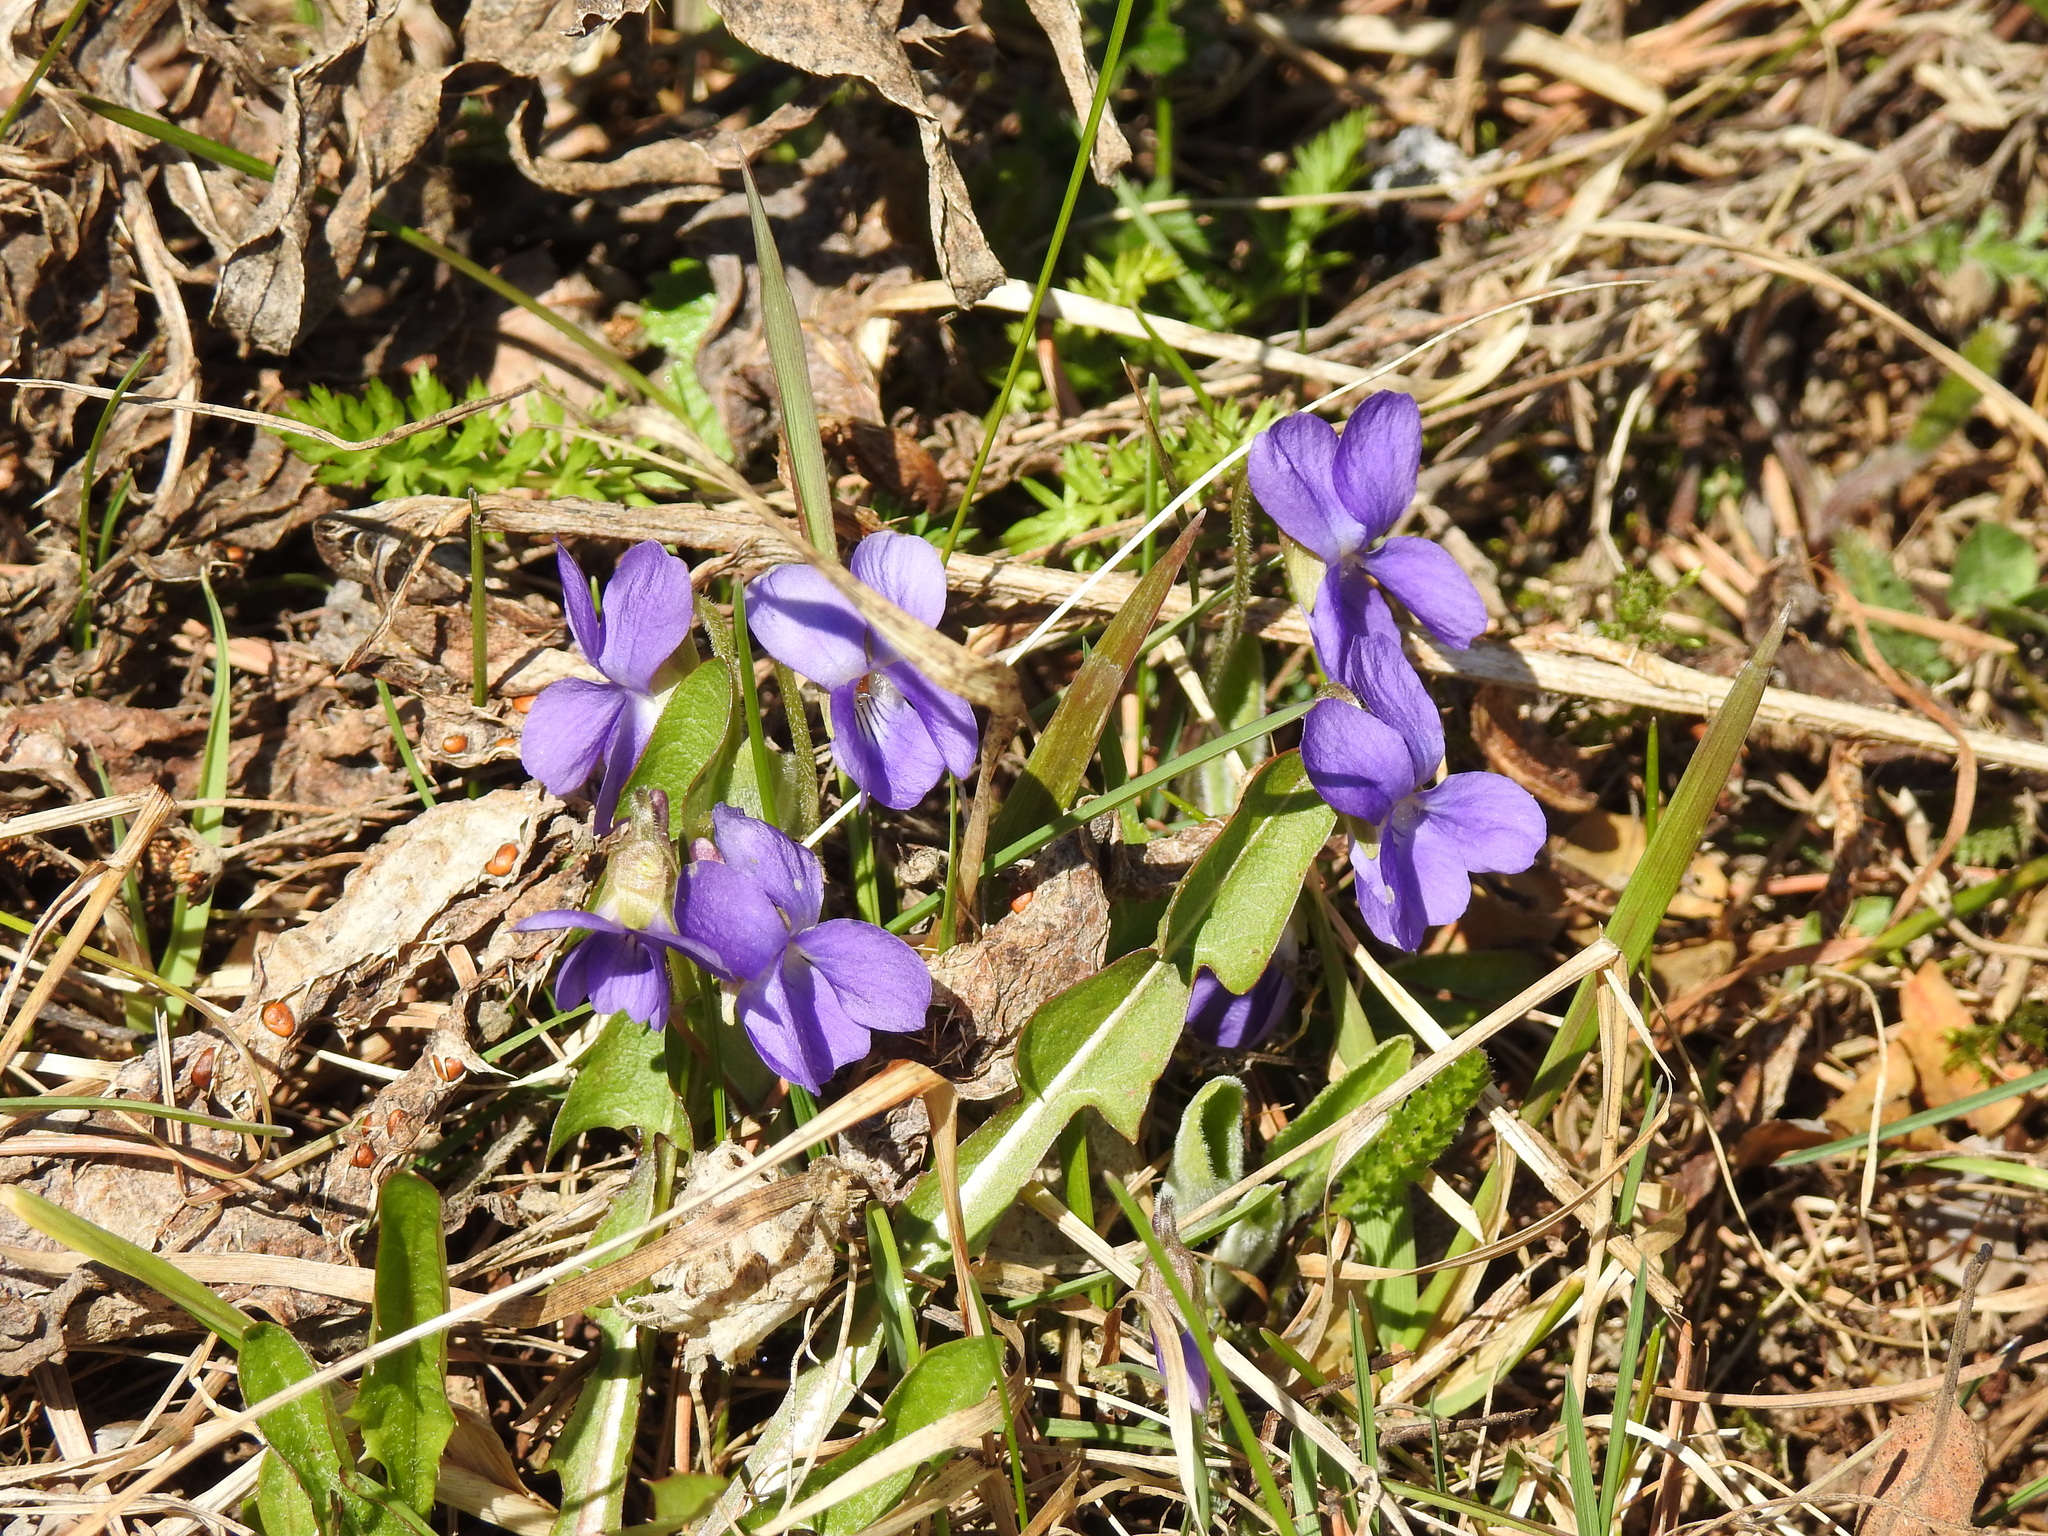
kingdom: Plantae
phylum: Tracheophyta
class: Magnoliopsida
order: Malpighiales
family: Violaceae
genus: Viola
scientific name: Viola hirta
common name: Hairy violet
